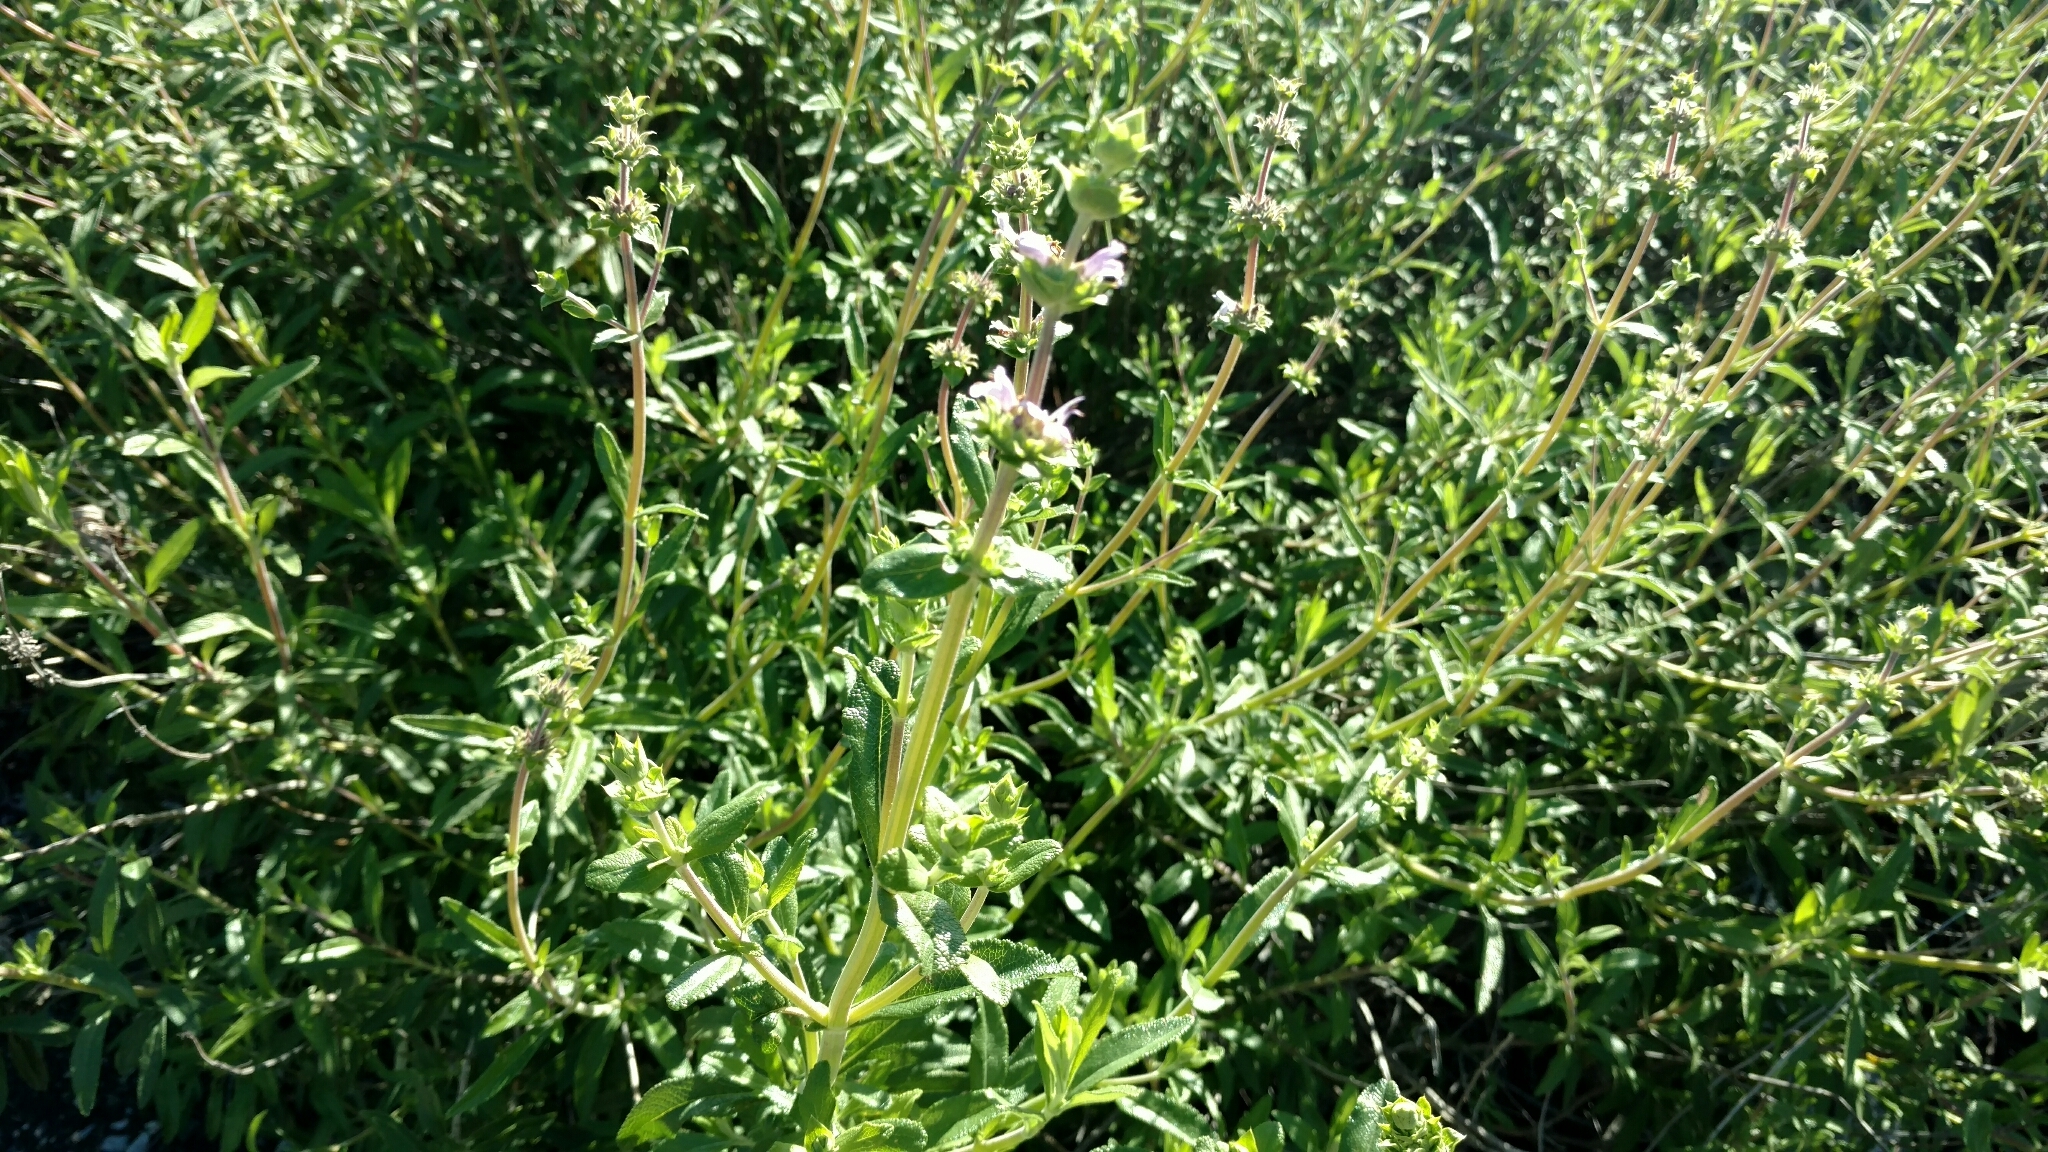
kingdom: Plantae
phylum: Tracheophyta
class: Magnoliopsida
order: Lamiales
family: Lamiaceae
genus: Salvia
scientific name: Salvia mellifera
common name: Black sage
